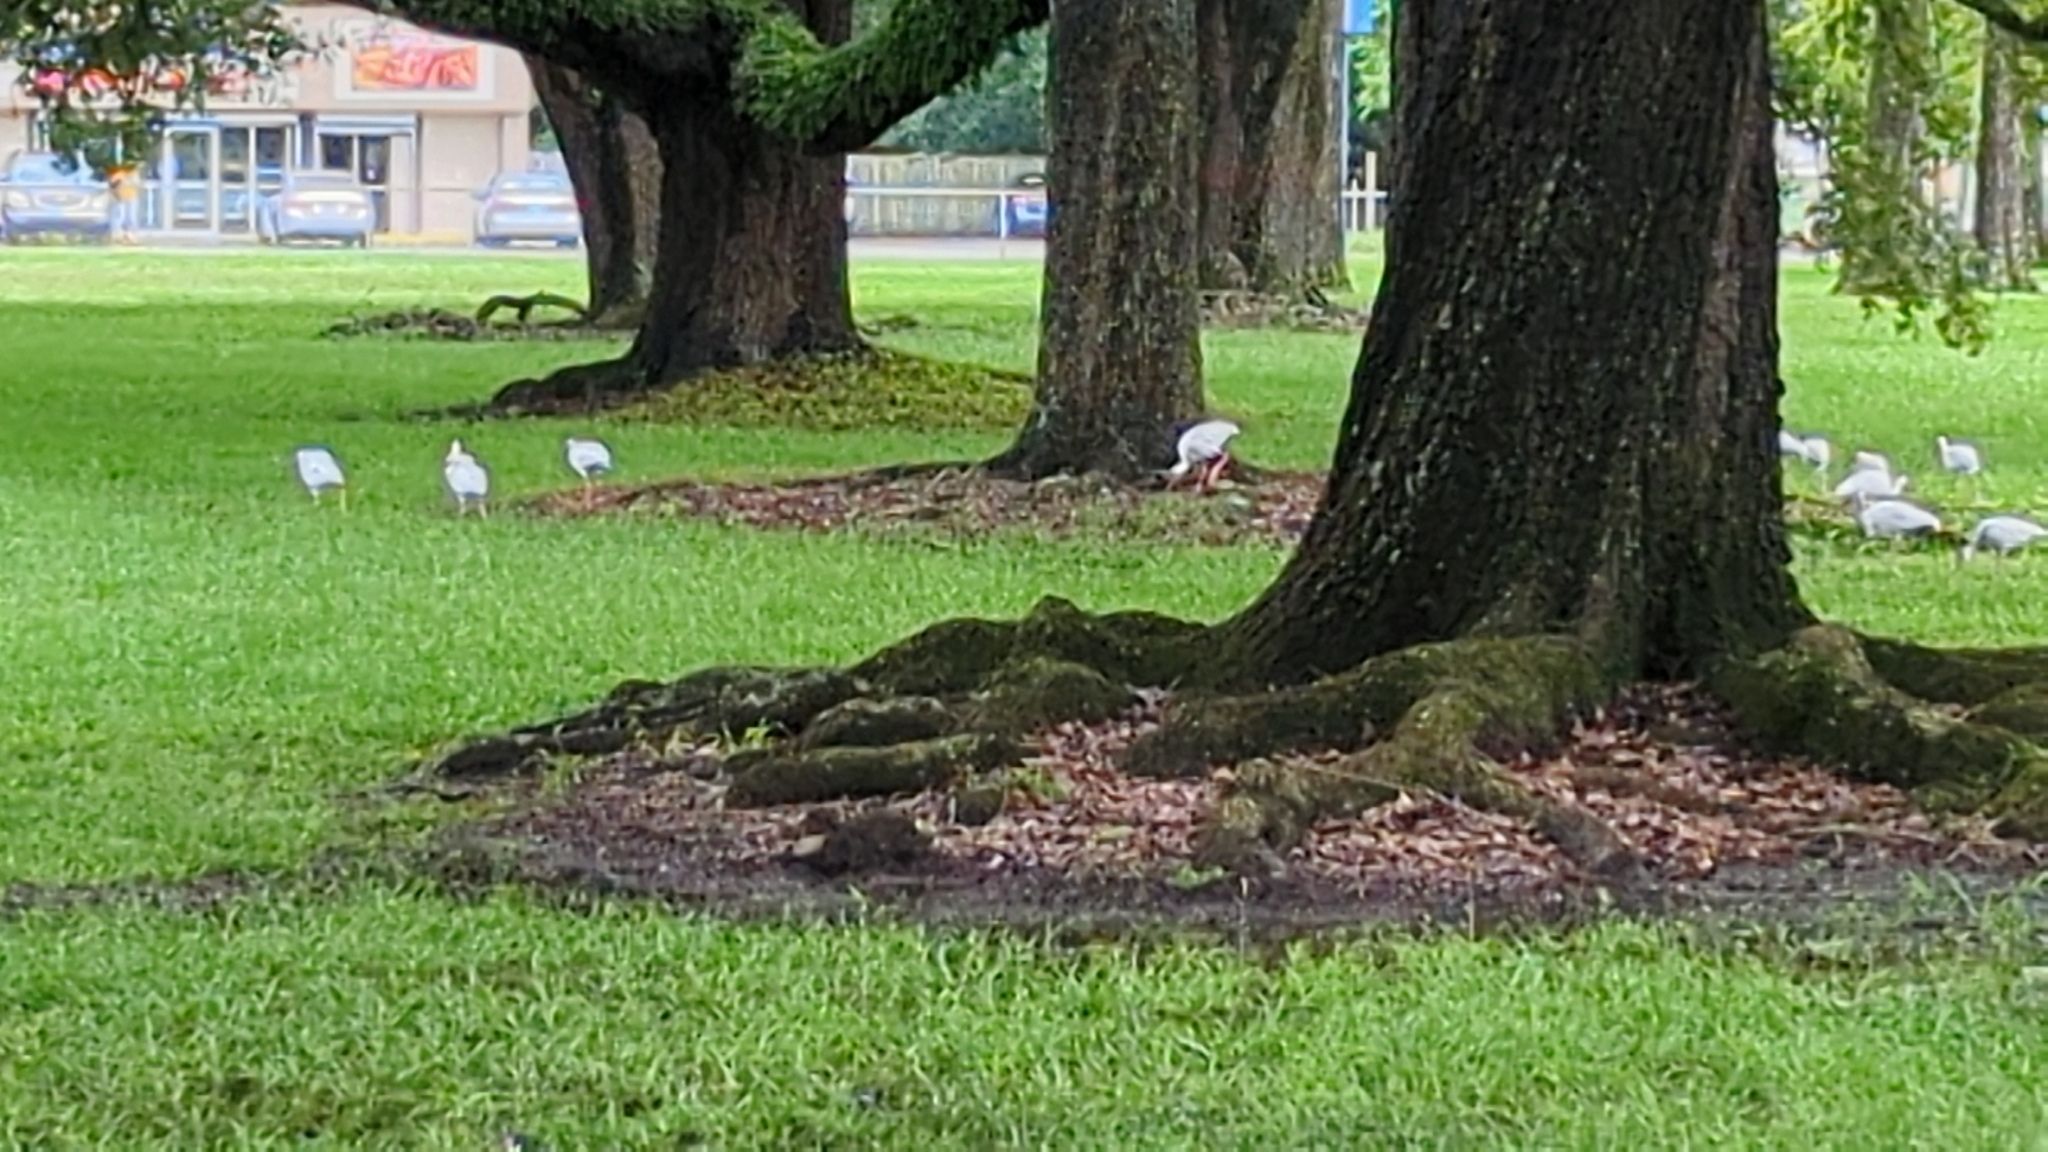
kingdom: Animalia
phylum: Chordata
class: Aves
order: Pelecaniformes
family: Threskiornithidae
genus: Eudocimus
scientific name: Eudocimus albus
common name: White ibis
